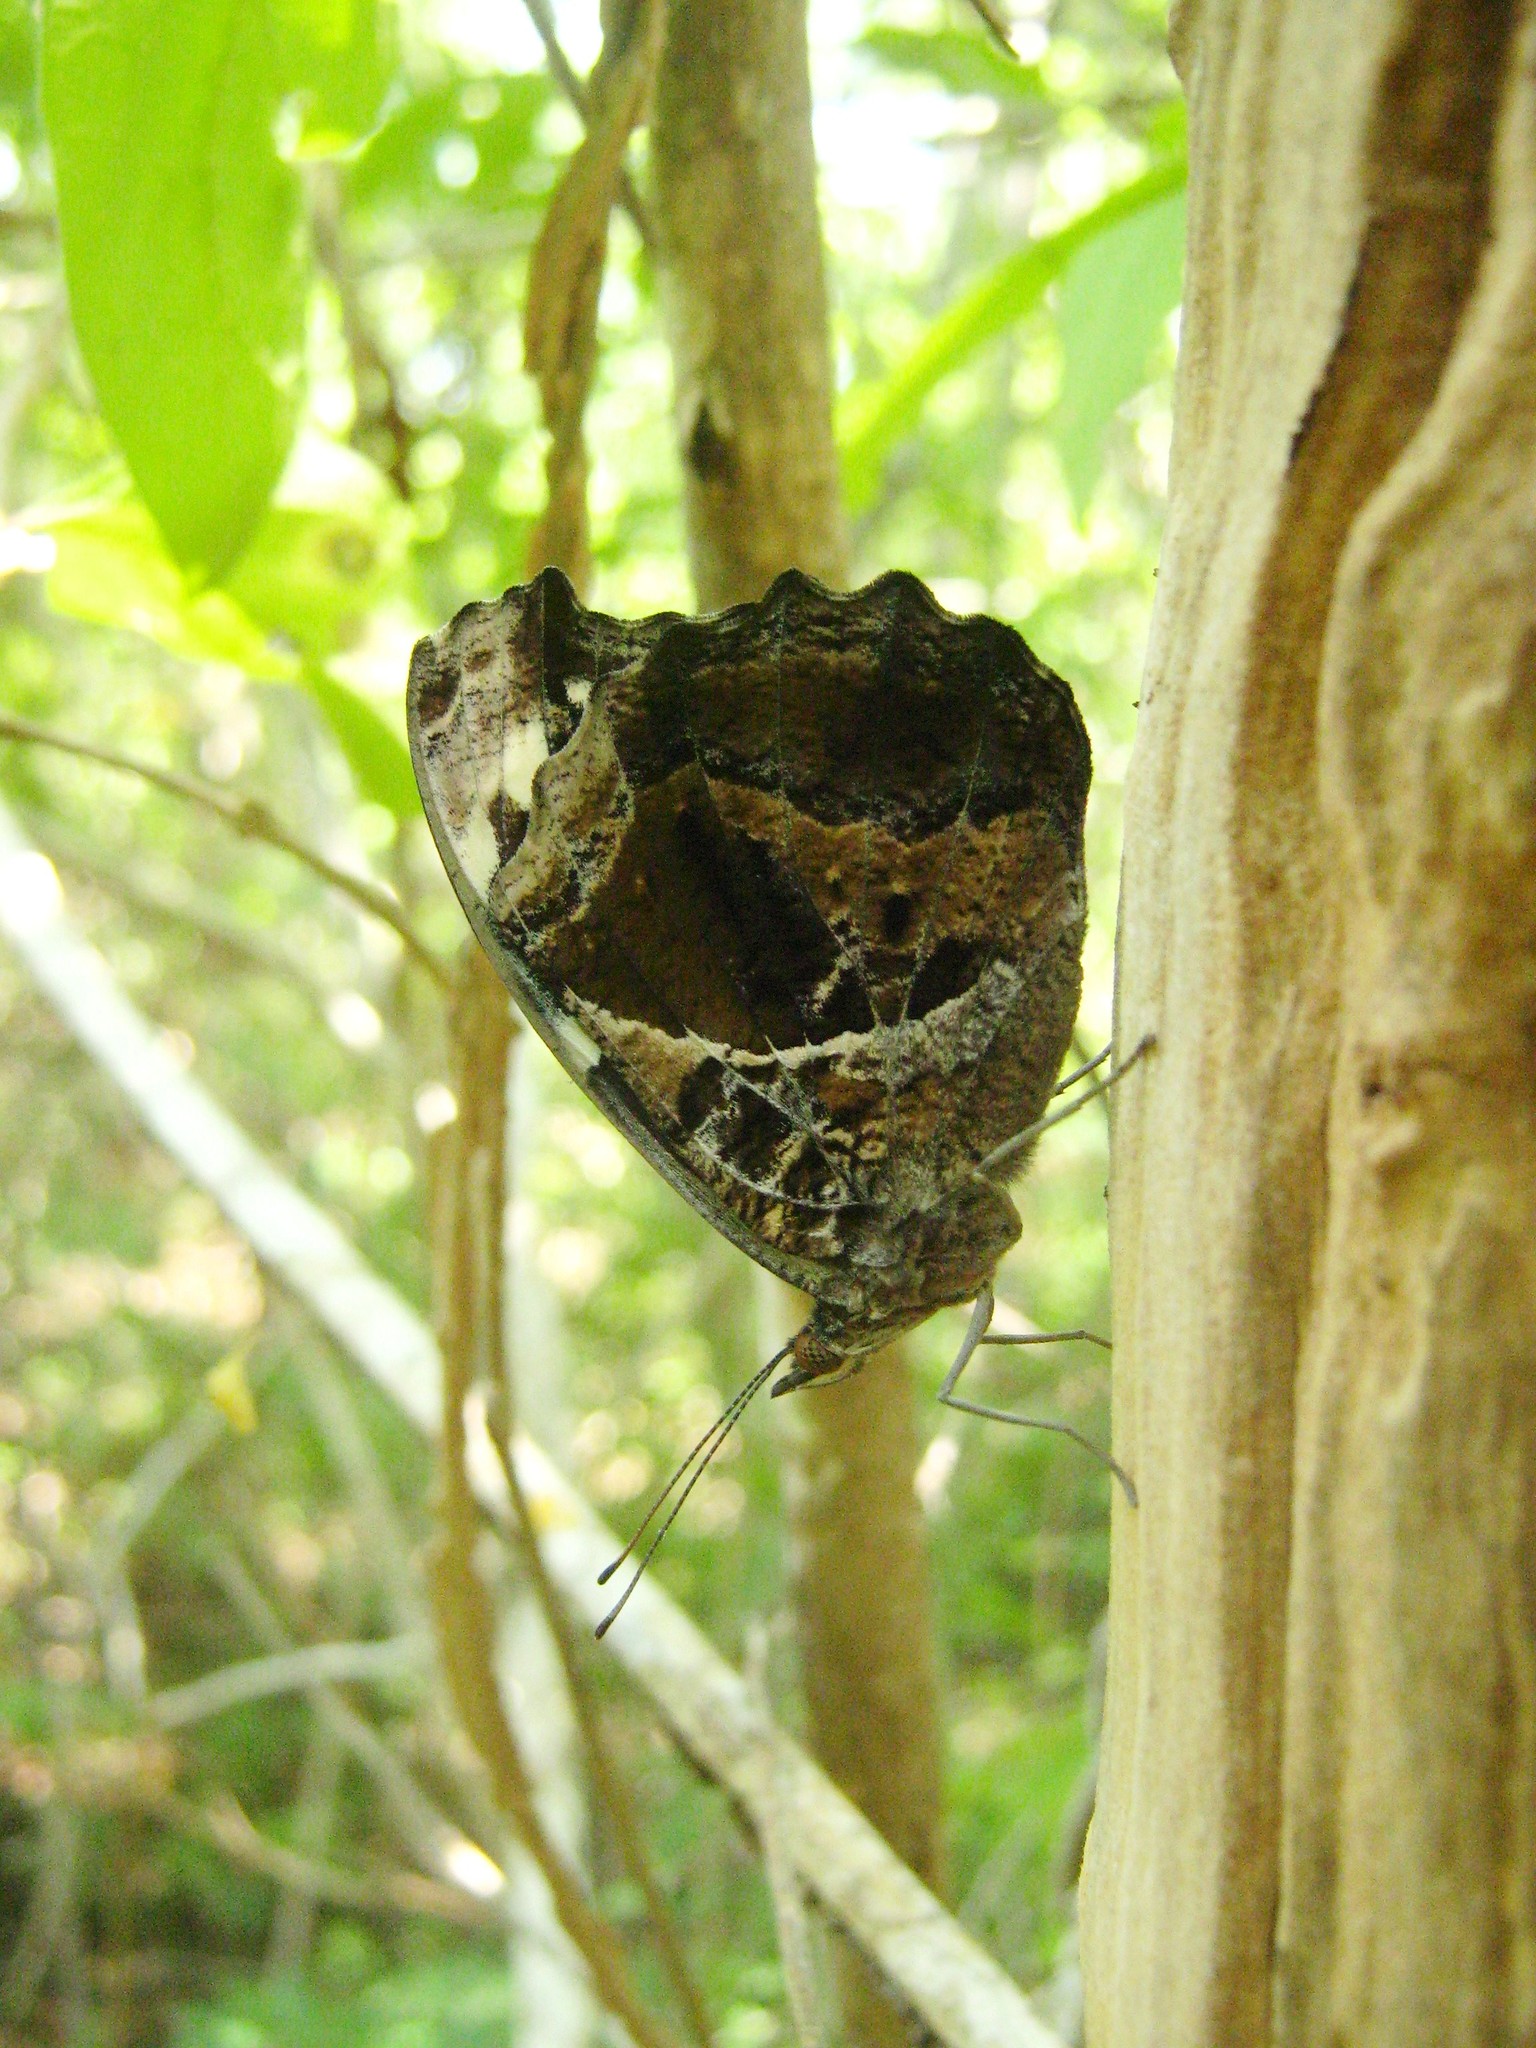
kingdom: Animalia
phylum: Arthropoda
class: Insecta
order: Lepidoptera
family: Nymphalidae
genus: Myscelia
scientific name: Myscelia cyananthe
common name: Blackened bluewing
